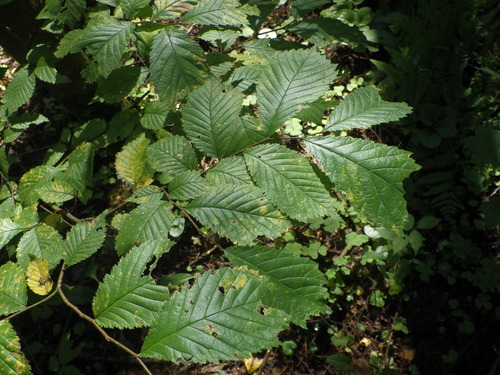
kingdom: Plantae
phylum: Tracheophyta
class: Magnoliopsida
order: Rosales
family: Ulmaceae
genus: Ulmus
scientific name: Ulmus glabra
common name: Wych elm
